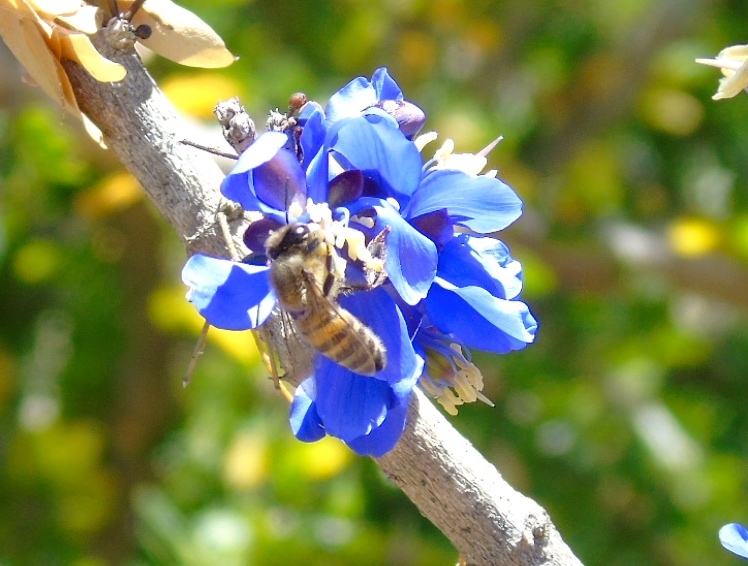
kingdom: Animalia
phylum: Arthropoda
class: Insecta
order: Hymenoptera
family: Apidae
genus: Apis
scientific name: Apis mellifera
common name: Honey bee
